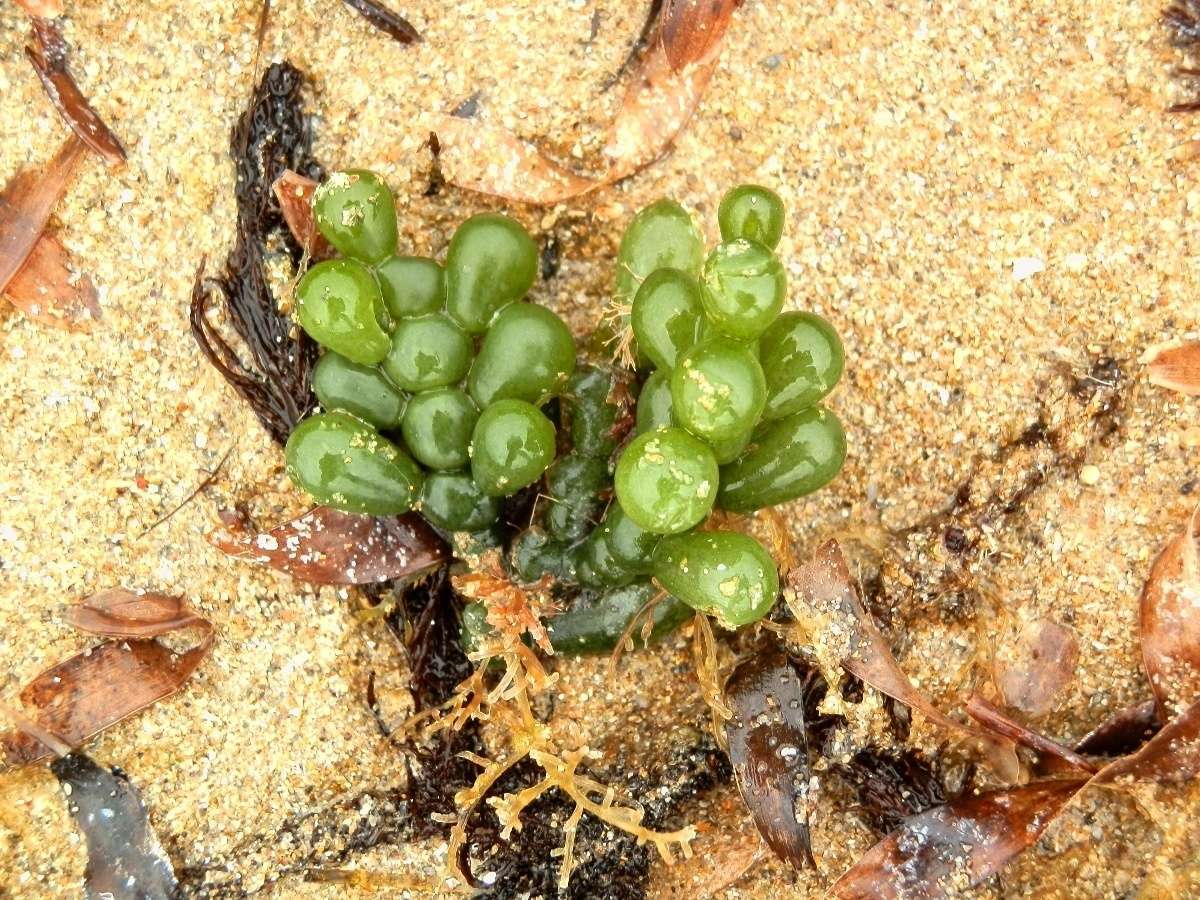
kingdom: Plantae
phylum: Chlorophyta
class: Ulvophyceae
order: Bryopsidales
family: Caulerpaceae
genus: Caulerpa
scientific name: Caulerpa cactoides
